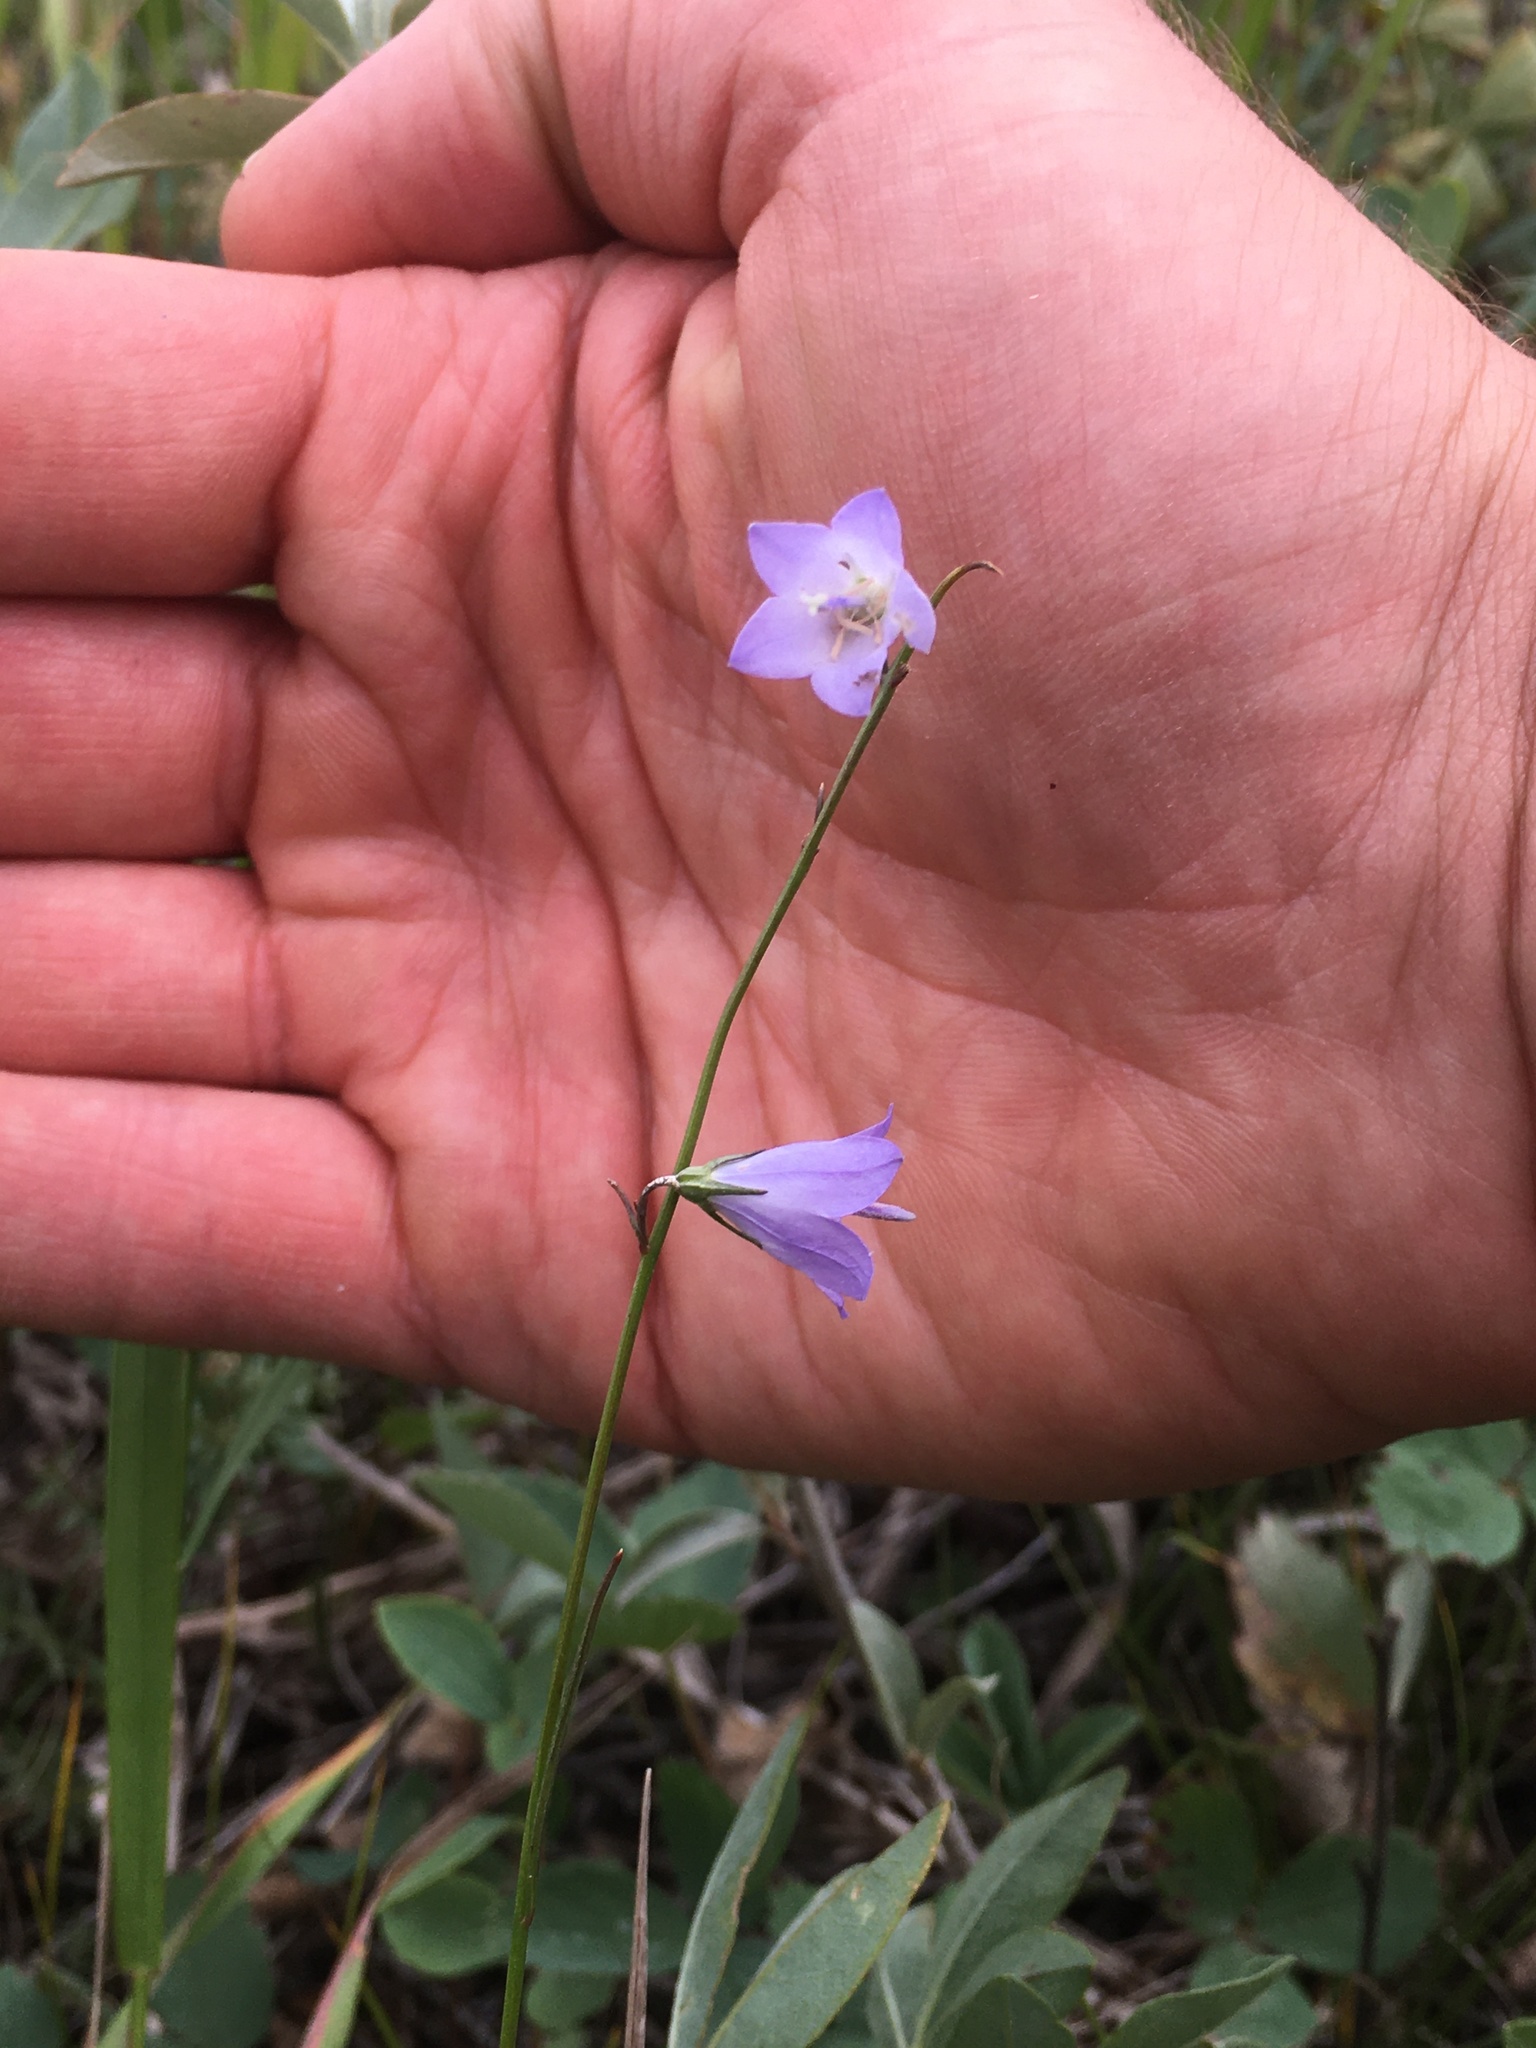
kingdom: Plantae
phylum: Tracheophyta
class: Magnoliopsida
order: Asterales
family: Campanulaceae
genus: Campanula
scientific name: Campanula alaskana
